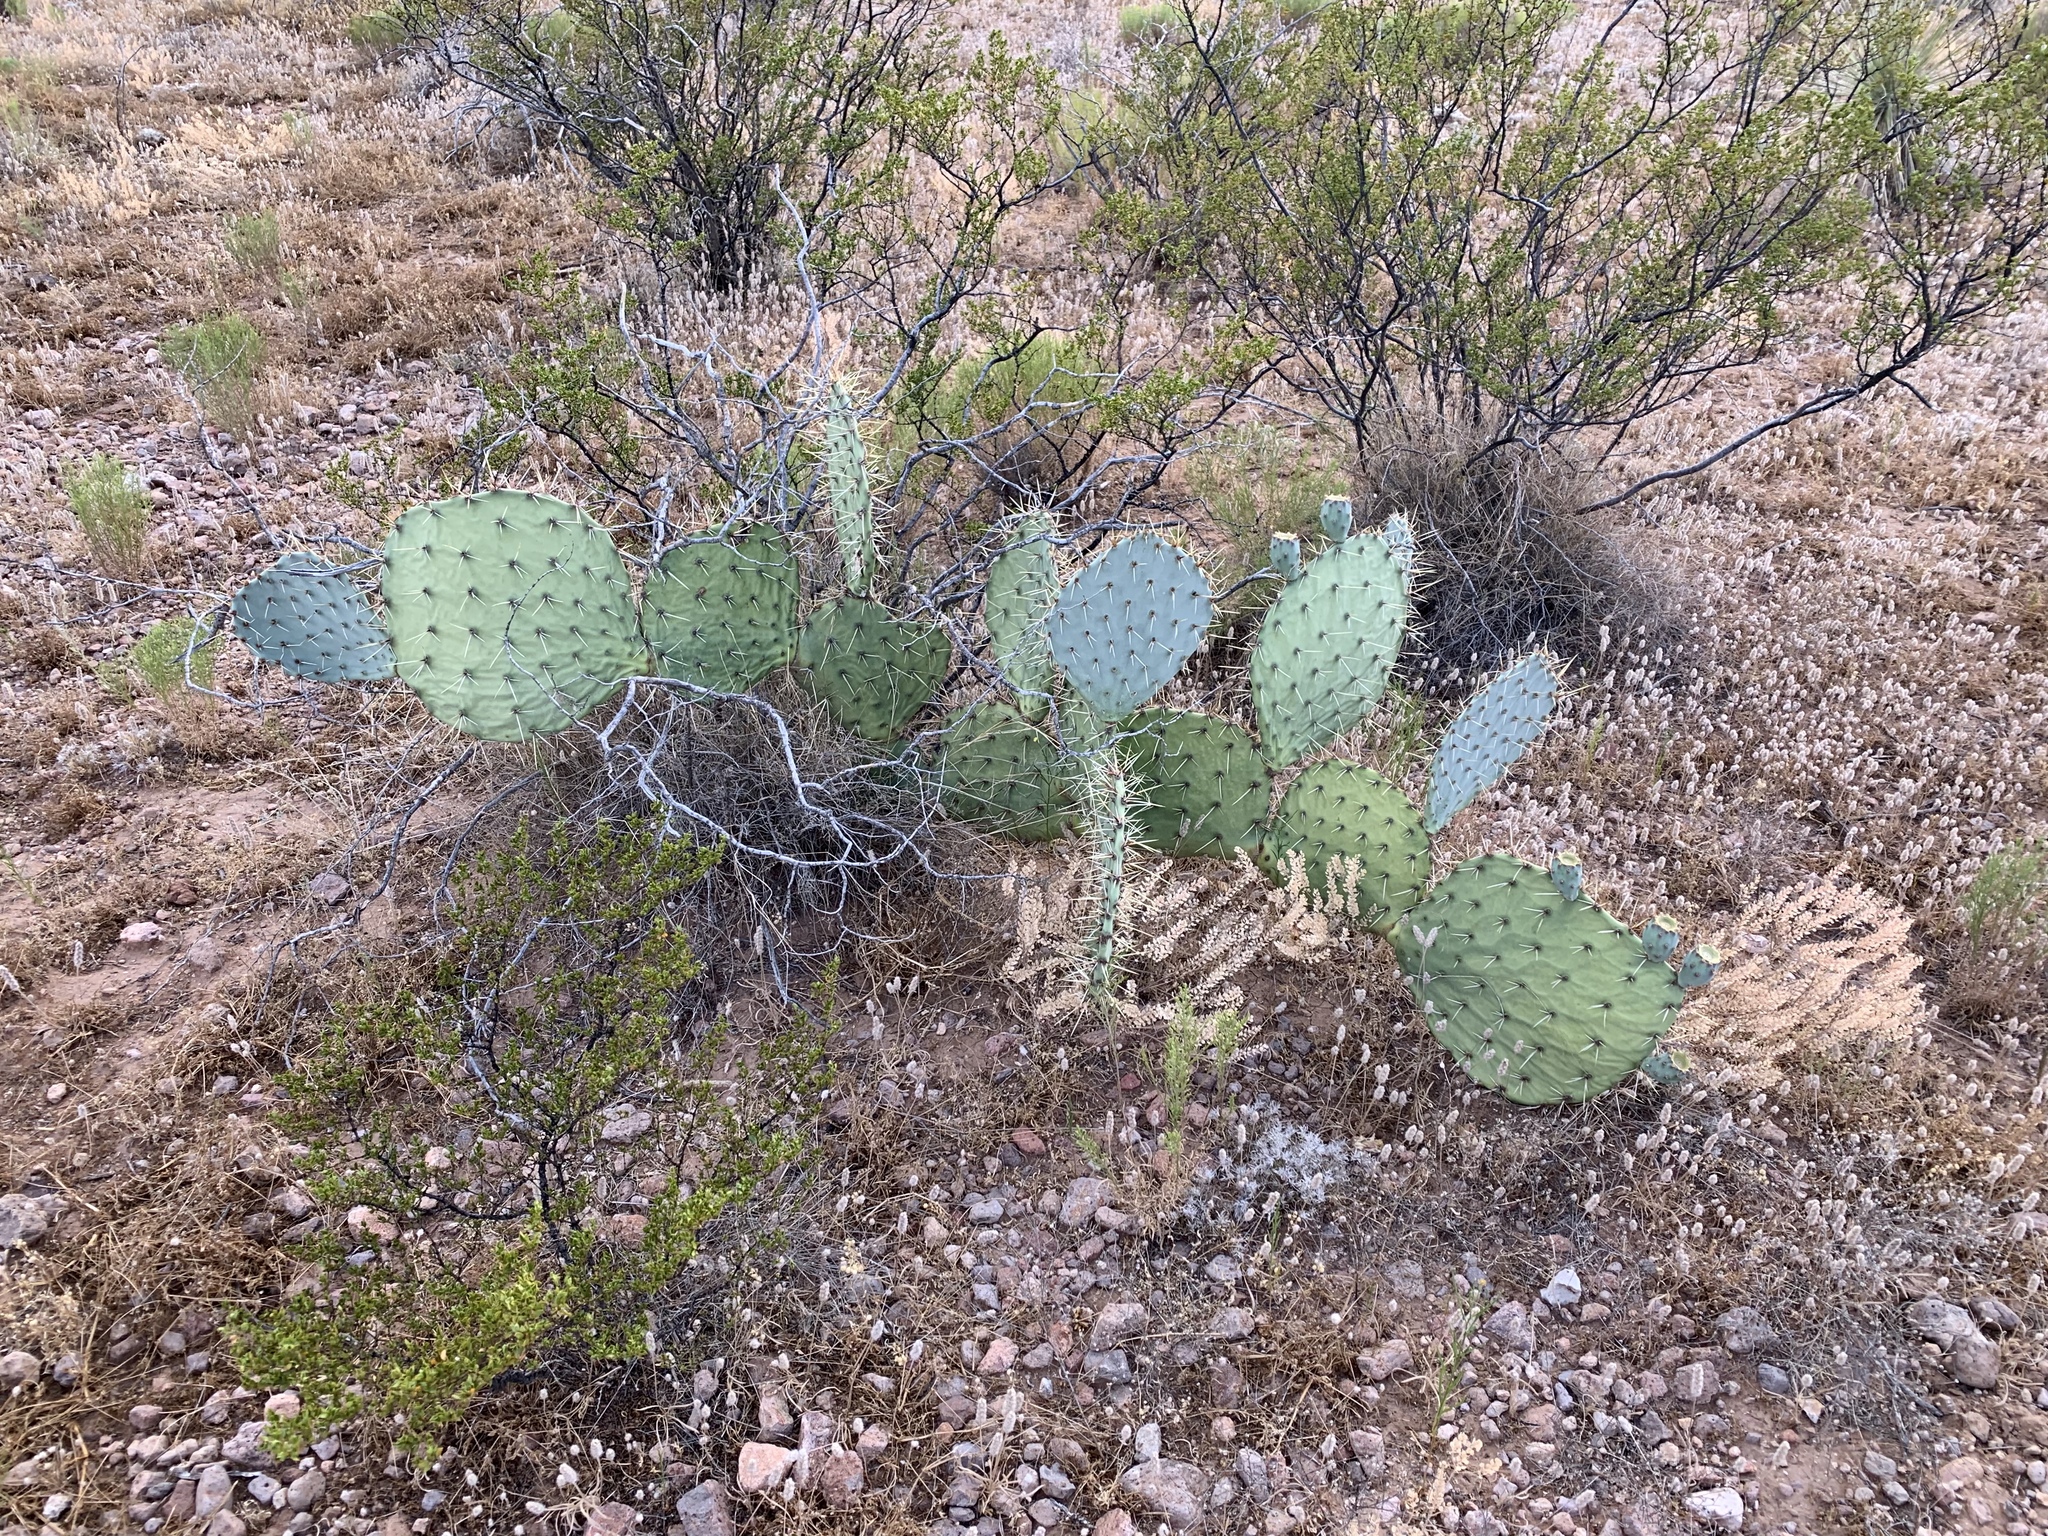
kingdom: Plantae
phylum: Tracheophyta
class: Magnoliopsida
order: Caryophyllales
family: Cactaceae
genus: Opuntia
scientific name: Opuntia engelmannii
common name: Cactus-apple
